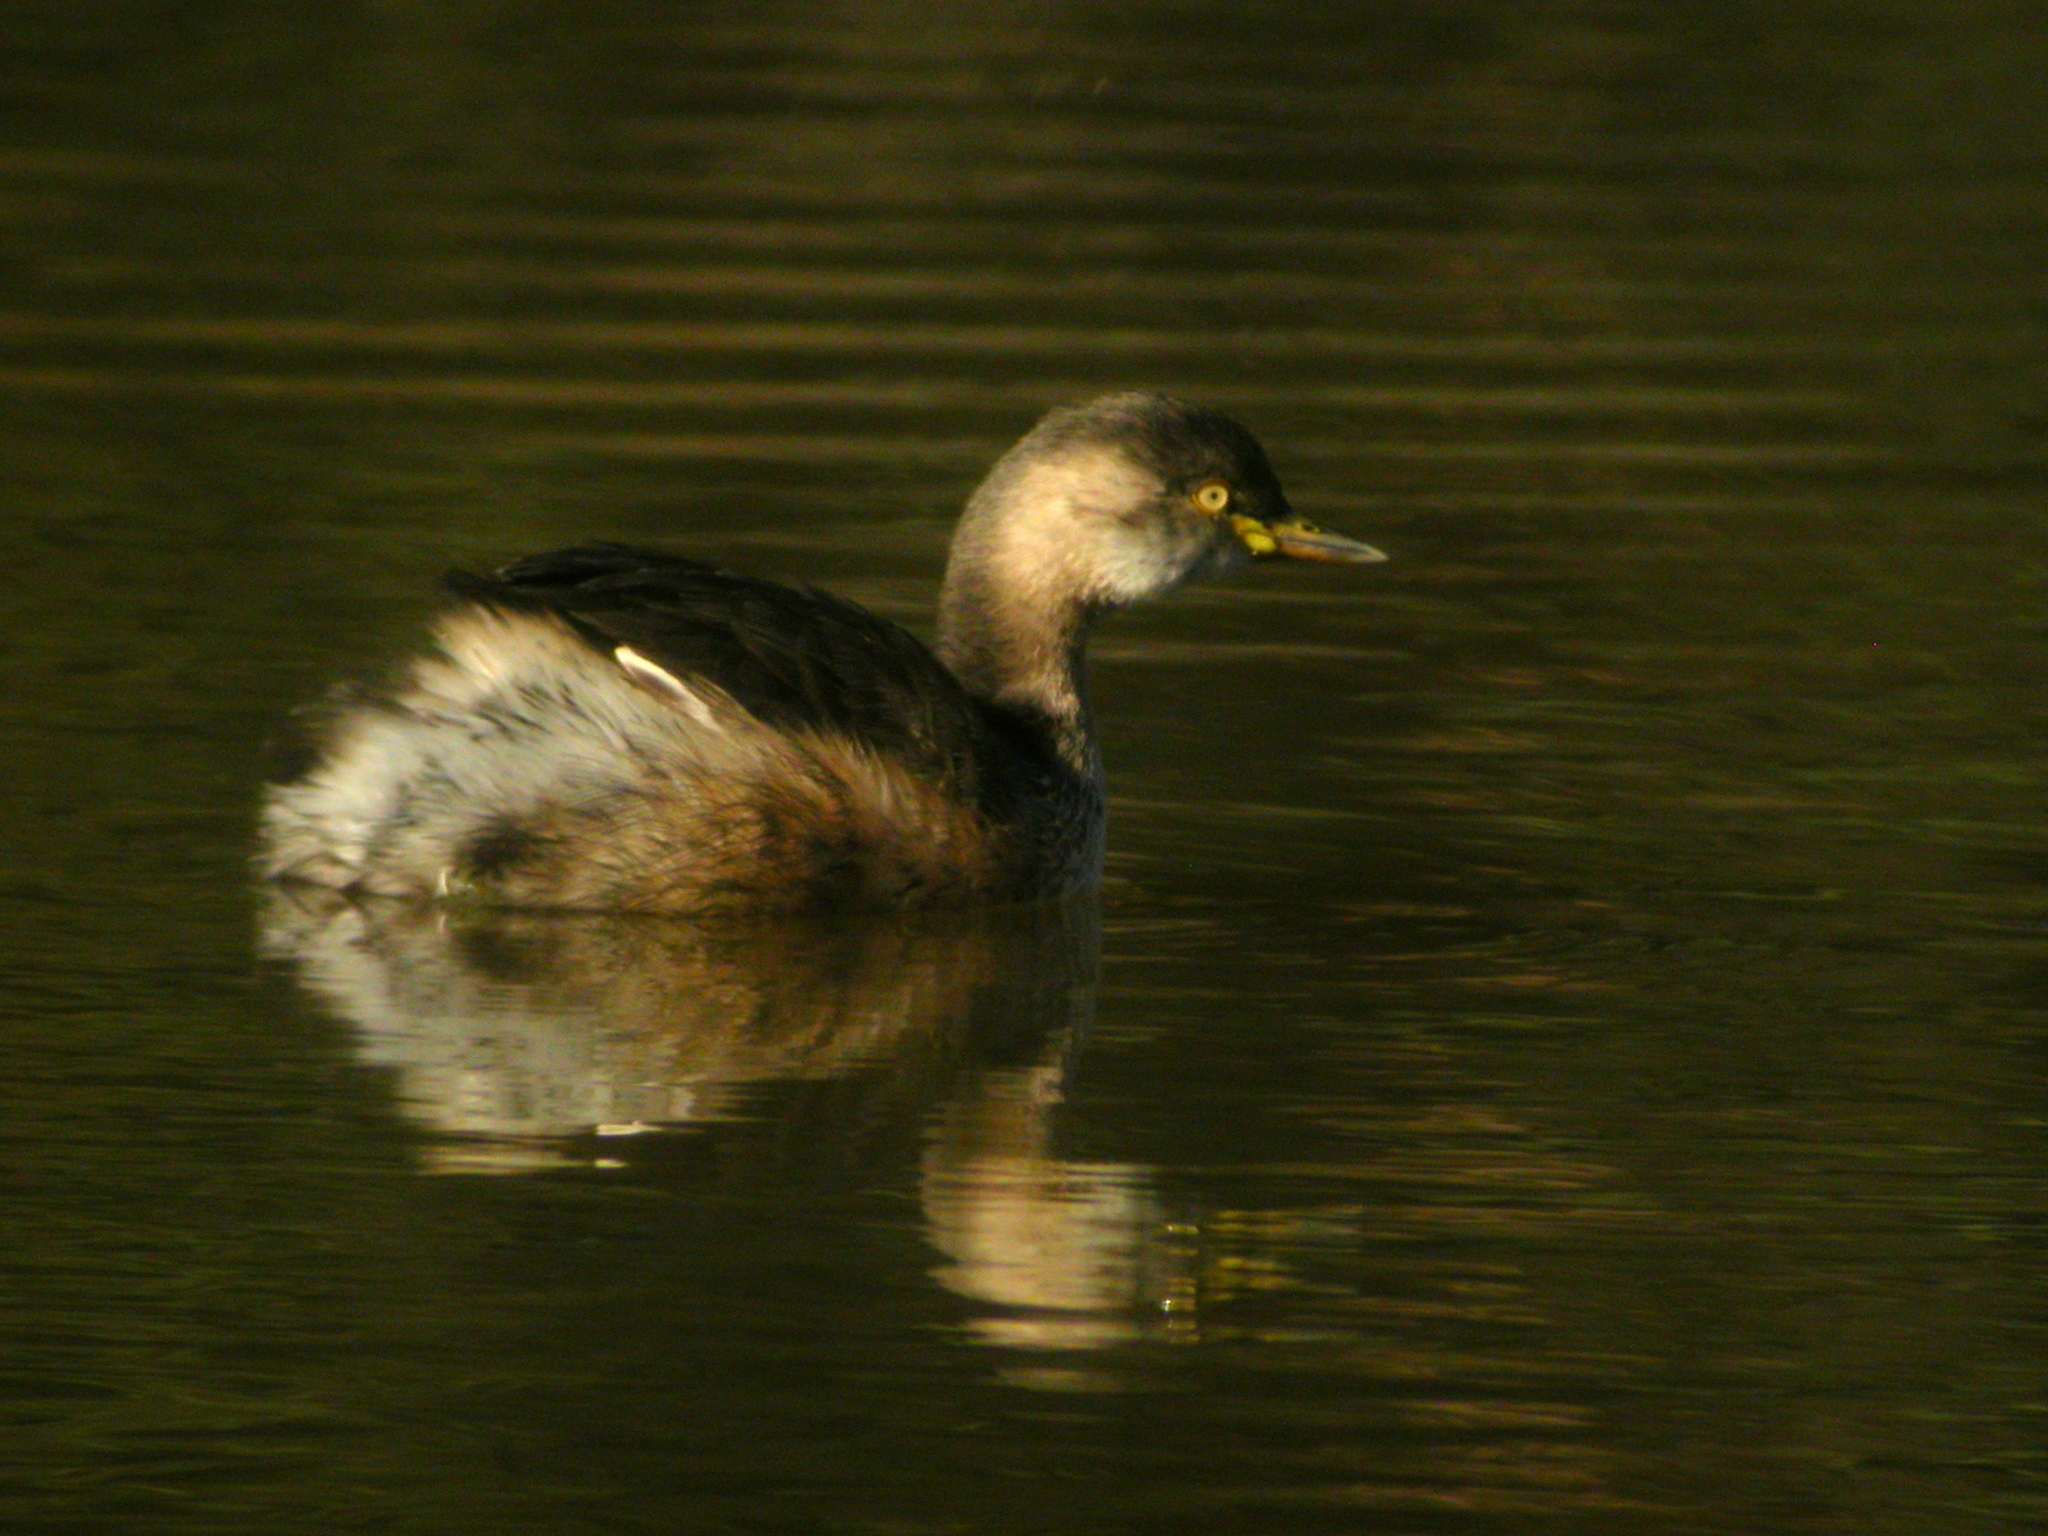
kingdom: Animalia
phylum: Chordata
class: Aves
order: Podicipediformes
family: Podicipedidae
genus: Tachybaptus
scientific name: Tachybaptus novaehollandiae
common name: Australasian grebe
